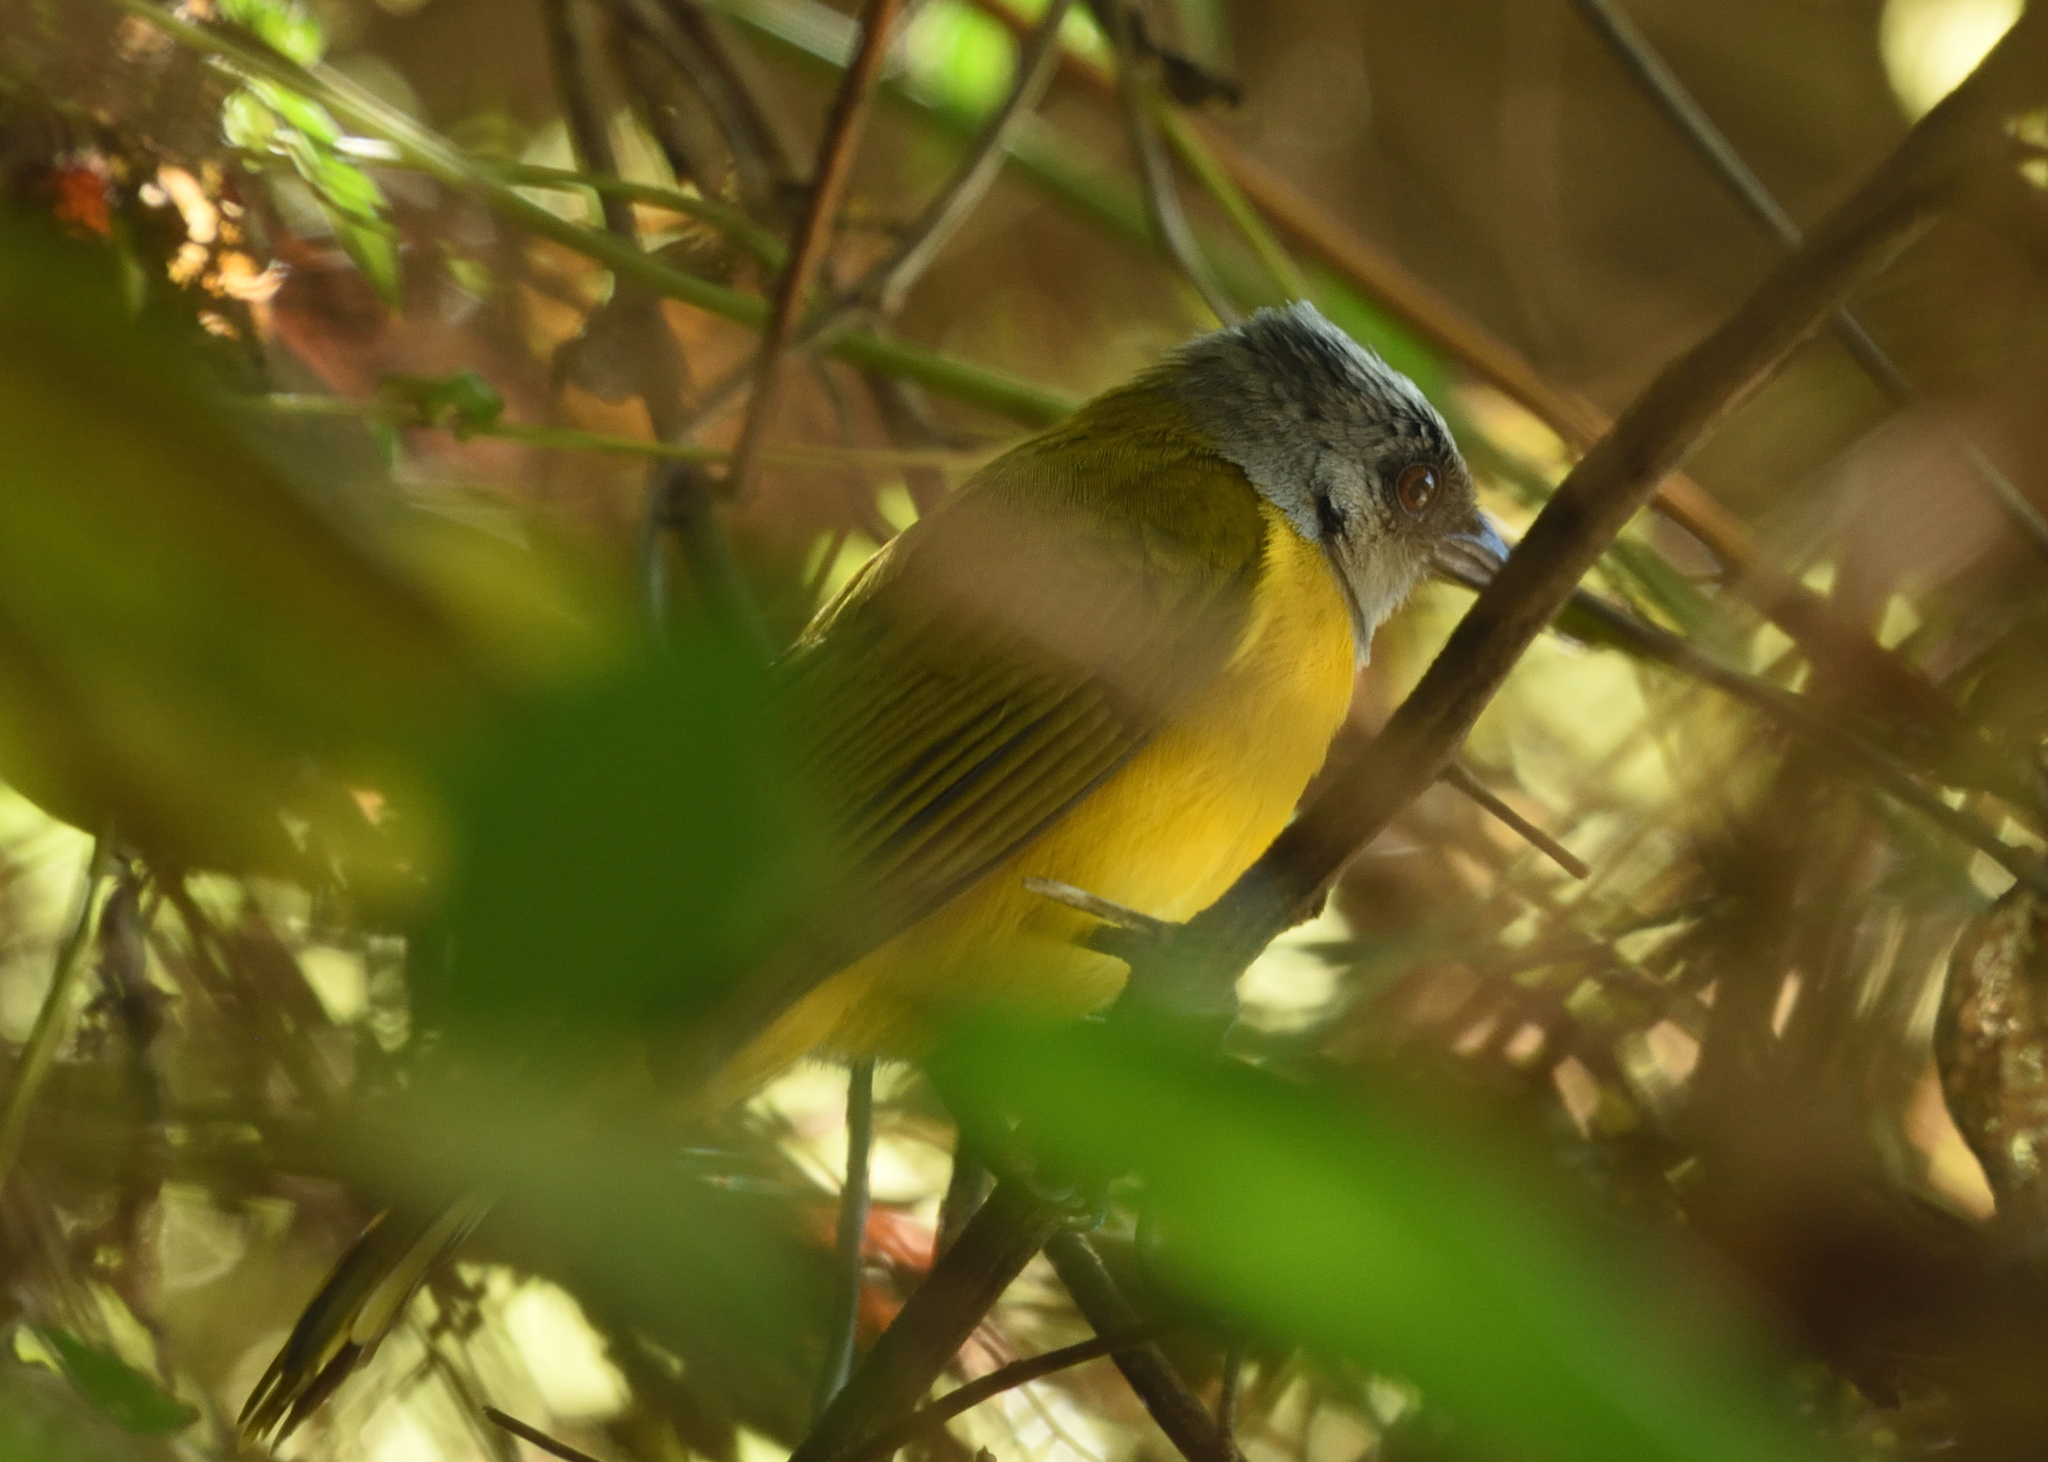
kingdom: Animalia
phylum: Chordata
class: Aves
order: Passeriformes
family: Thraupidae
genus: Eucometis
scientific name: Eucometis penicillata
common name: Grey-headed tanager
